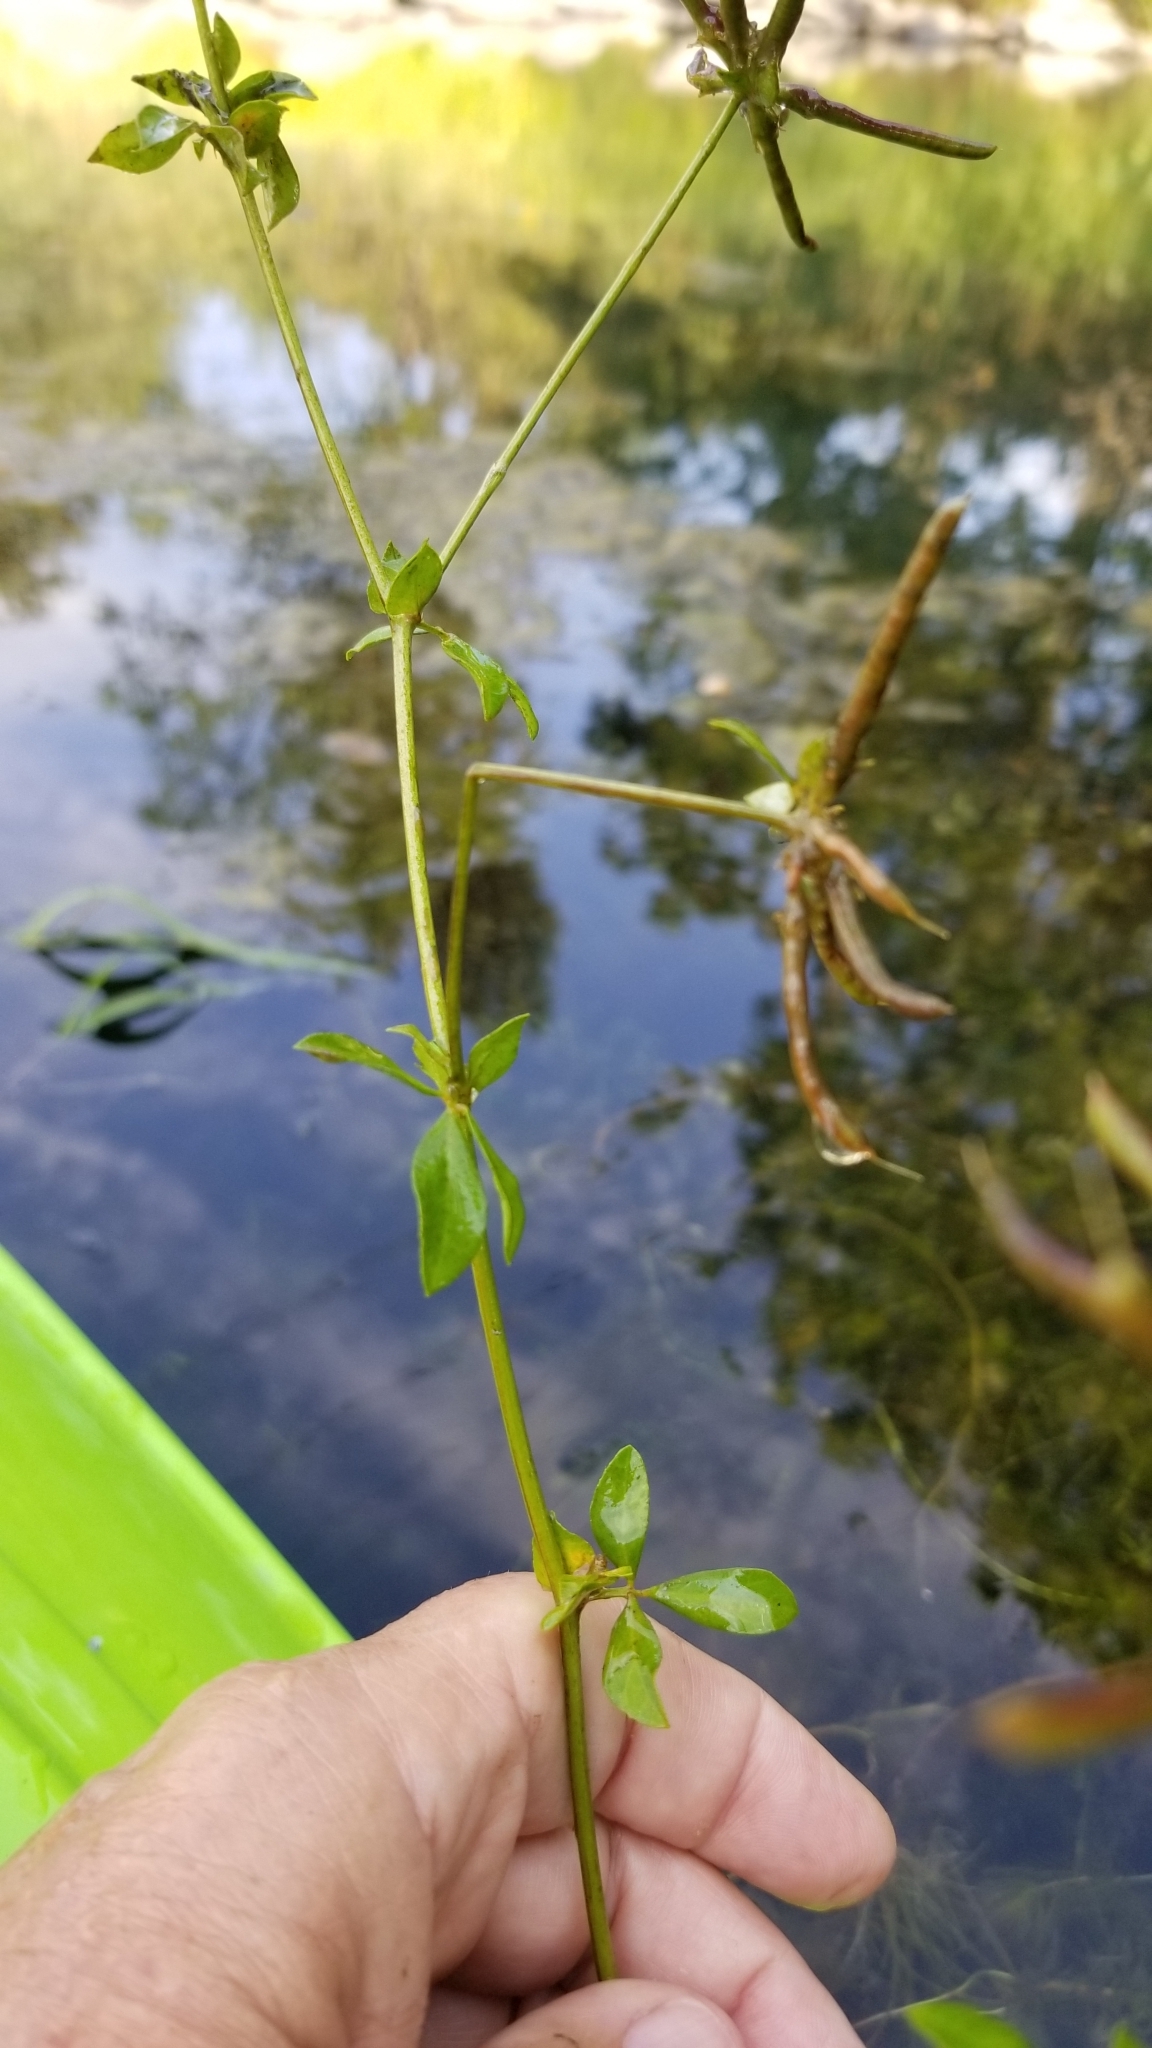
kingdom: Plantae
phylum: Tracheophyta
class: Magnoliopsida
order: Fabales
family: Fabaceae
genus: Lotus
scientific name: Lotus pedunculatus
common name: Greater birdsfoot-trefoil
